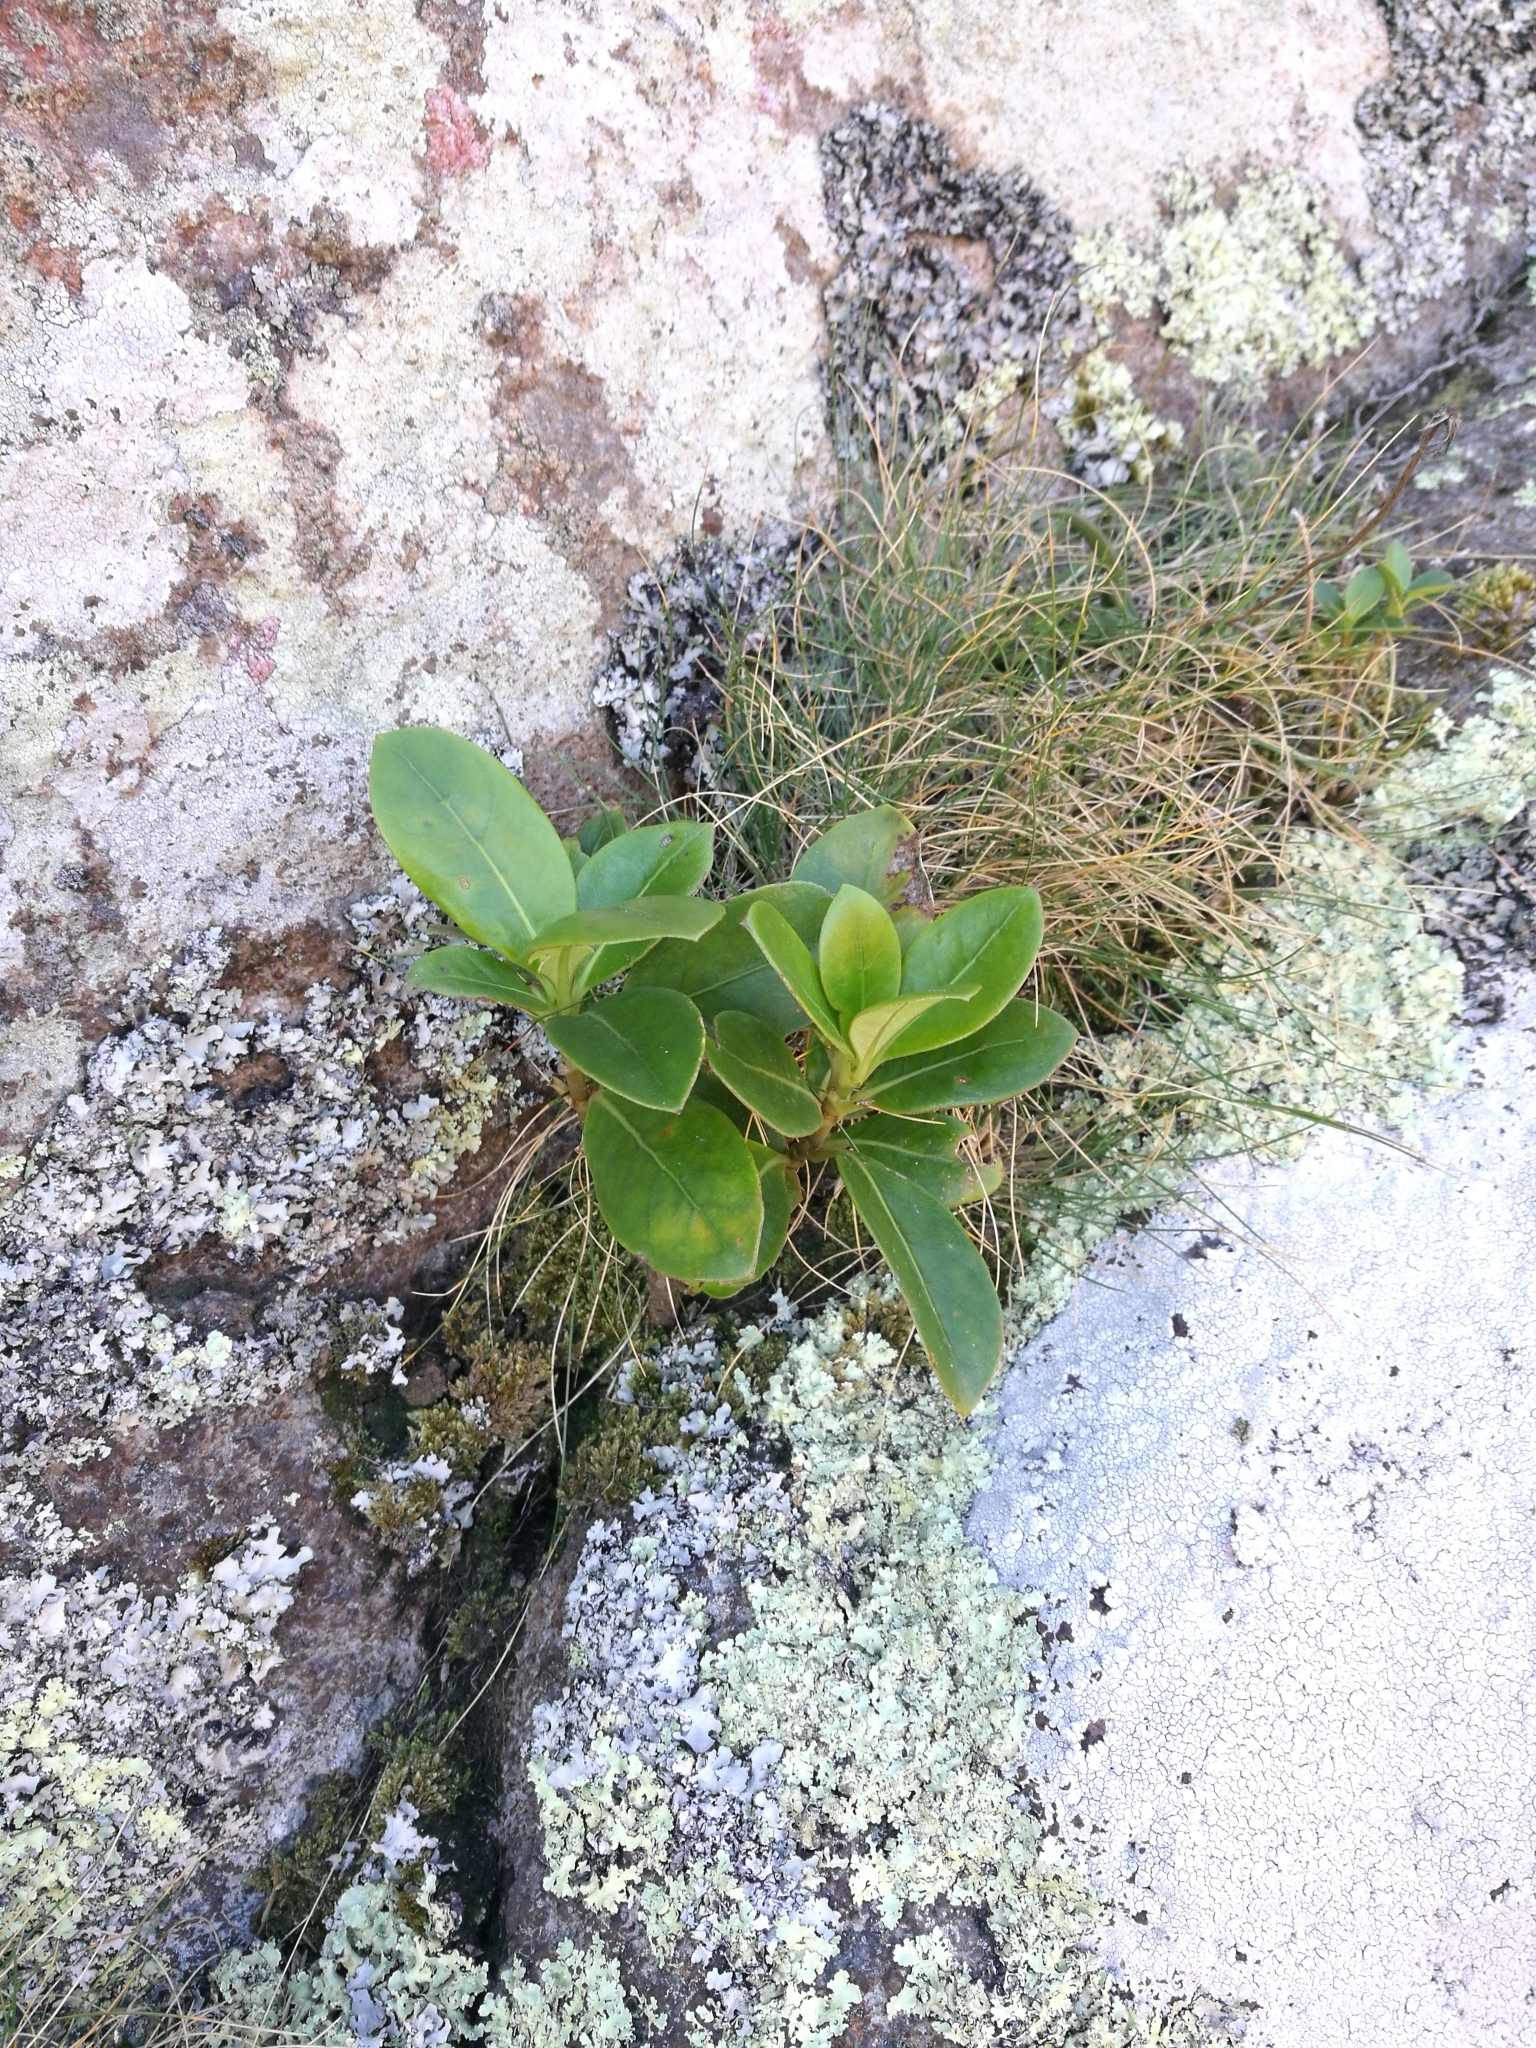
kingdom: Plantae
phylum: Tracheophyta
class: Magnoliopsida
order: Gentianales
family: Rubiaceae
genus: Coprosma
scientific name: Coprosma lucida
